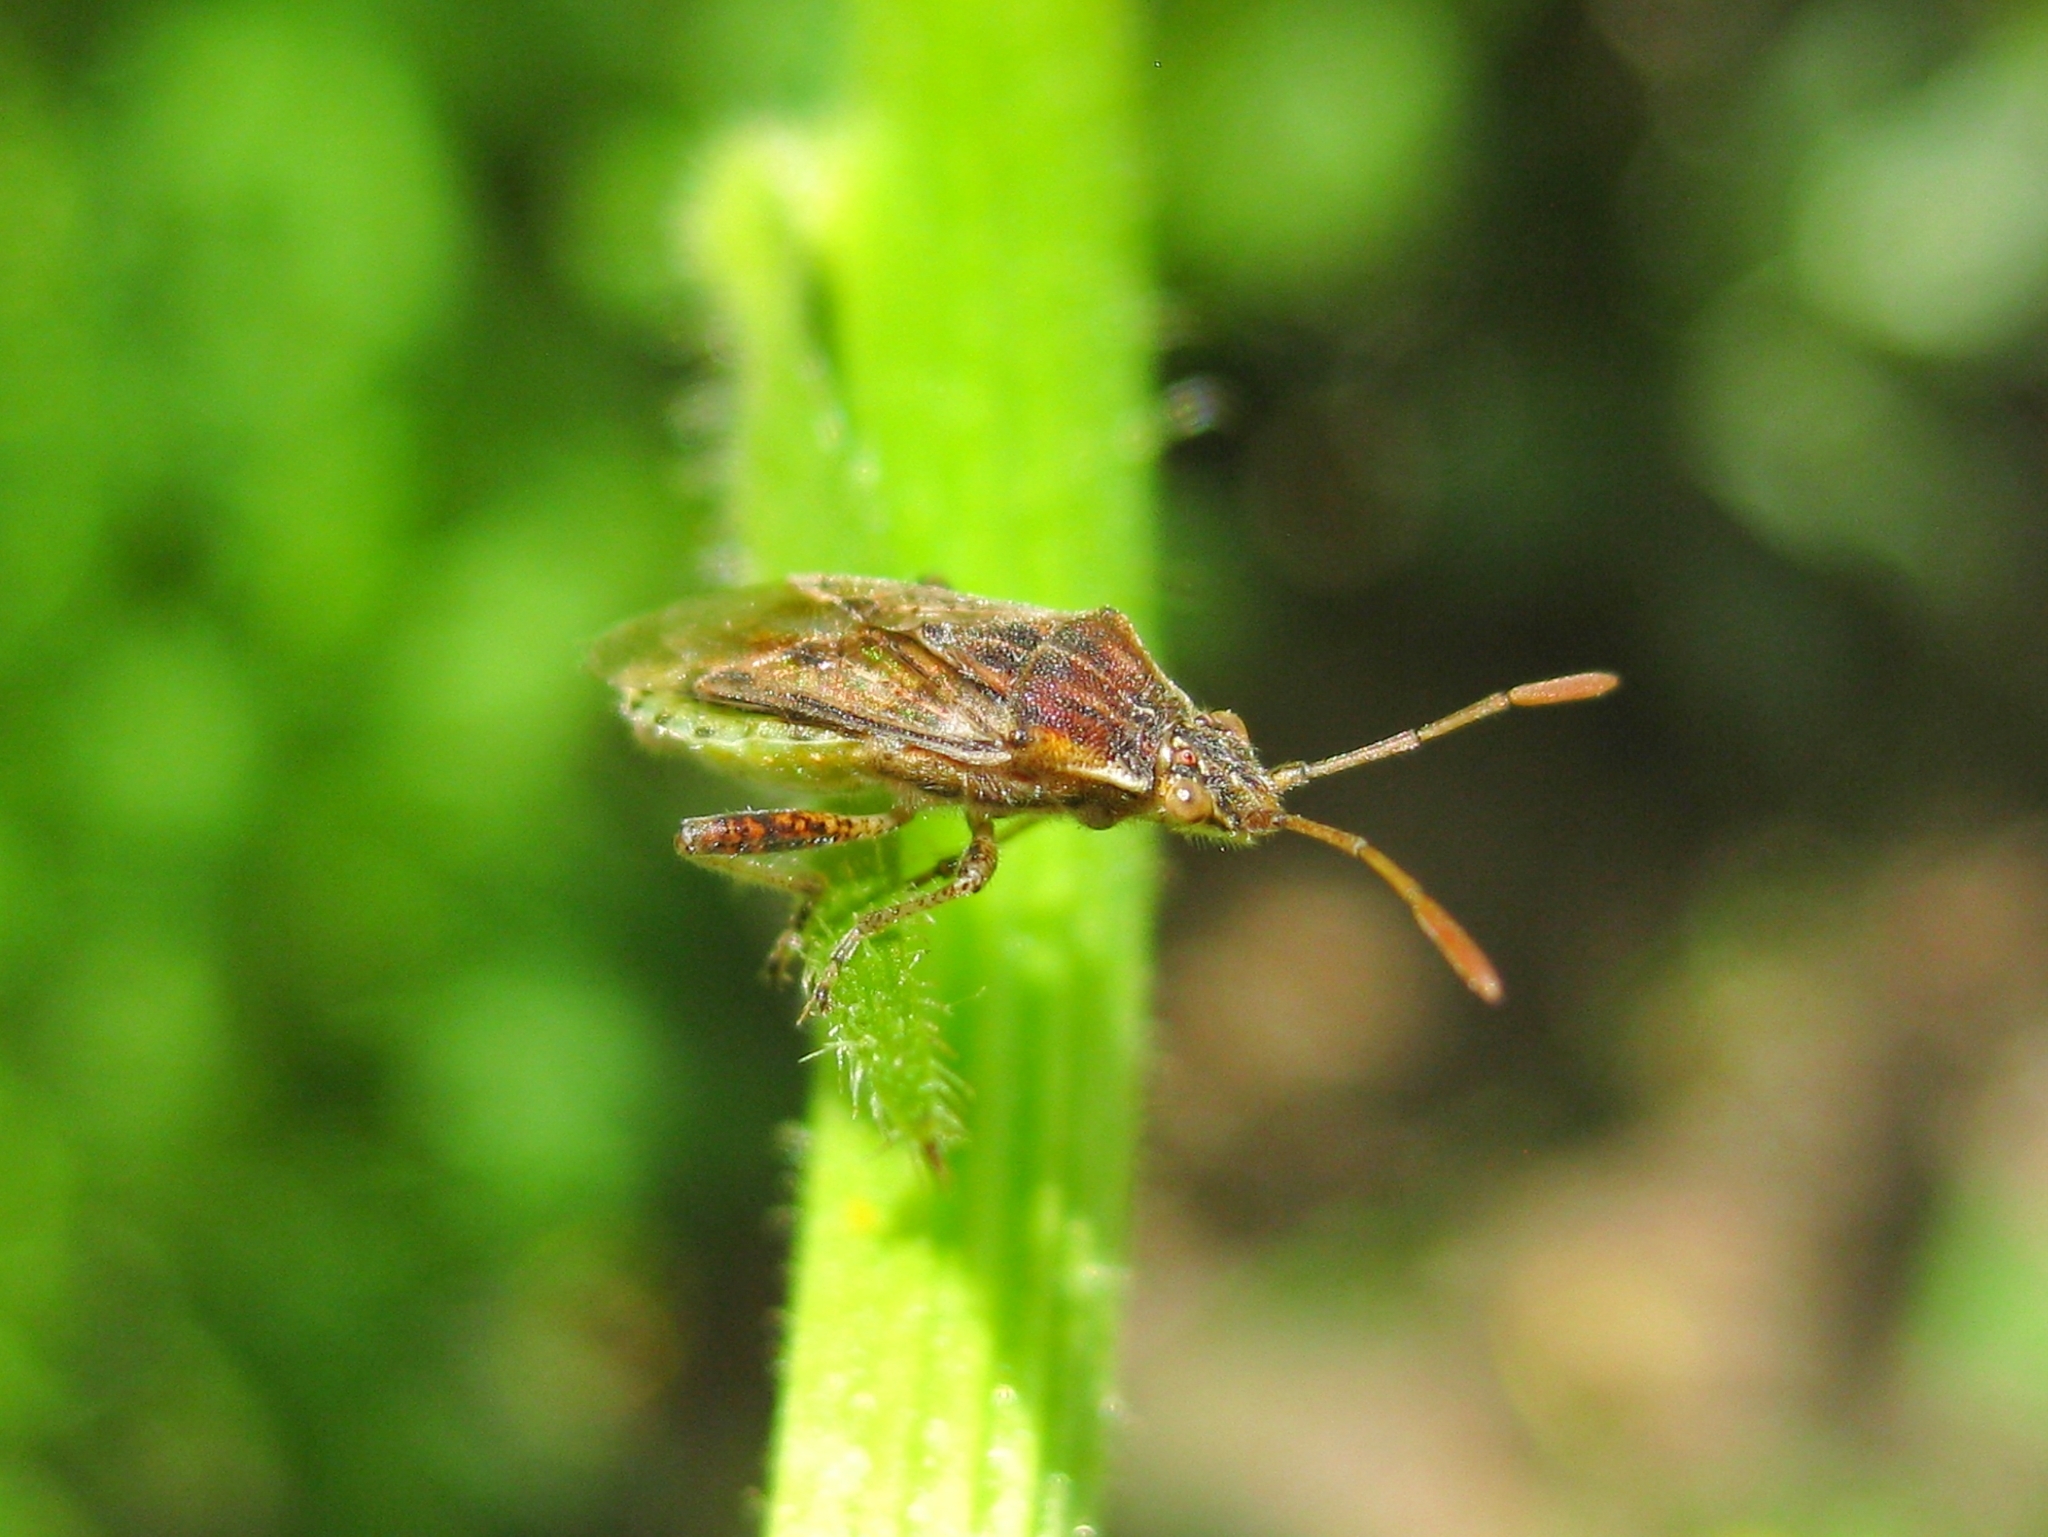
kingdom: Animalia
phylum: Arthropoda
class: Insecta
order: Hemiptera
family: Rhopalidae
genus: Stictopleurus
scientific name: Stictopleurus
